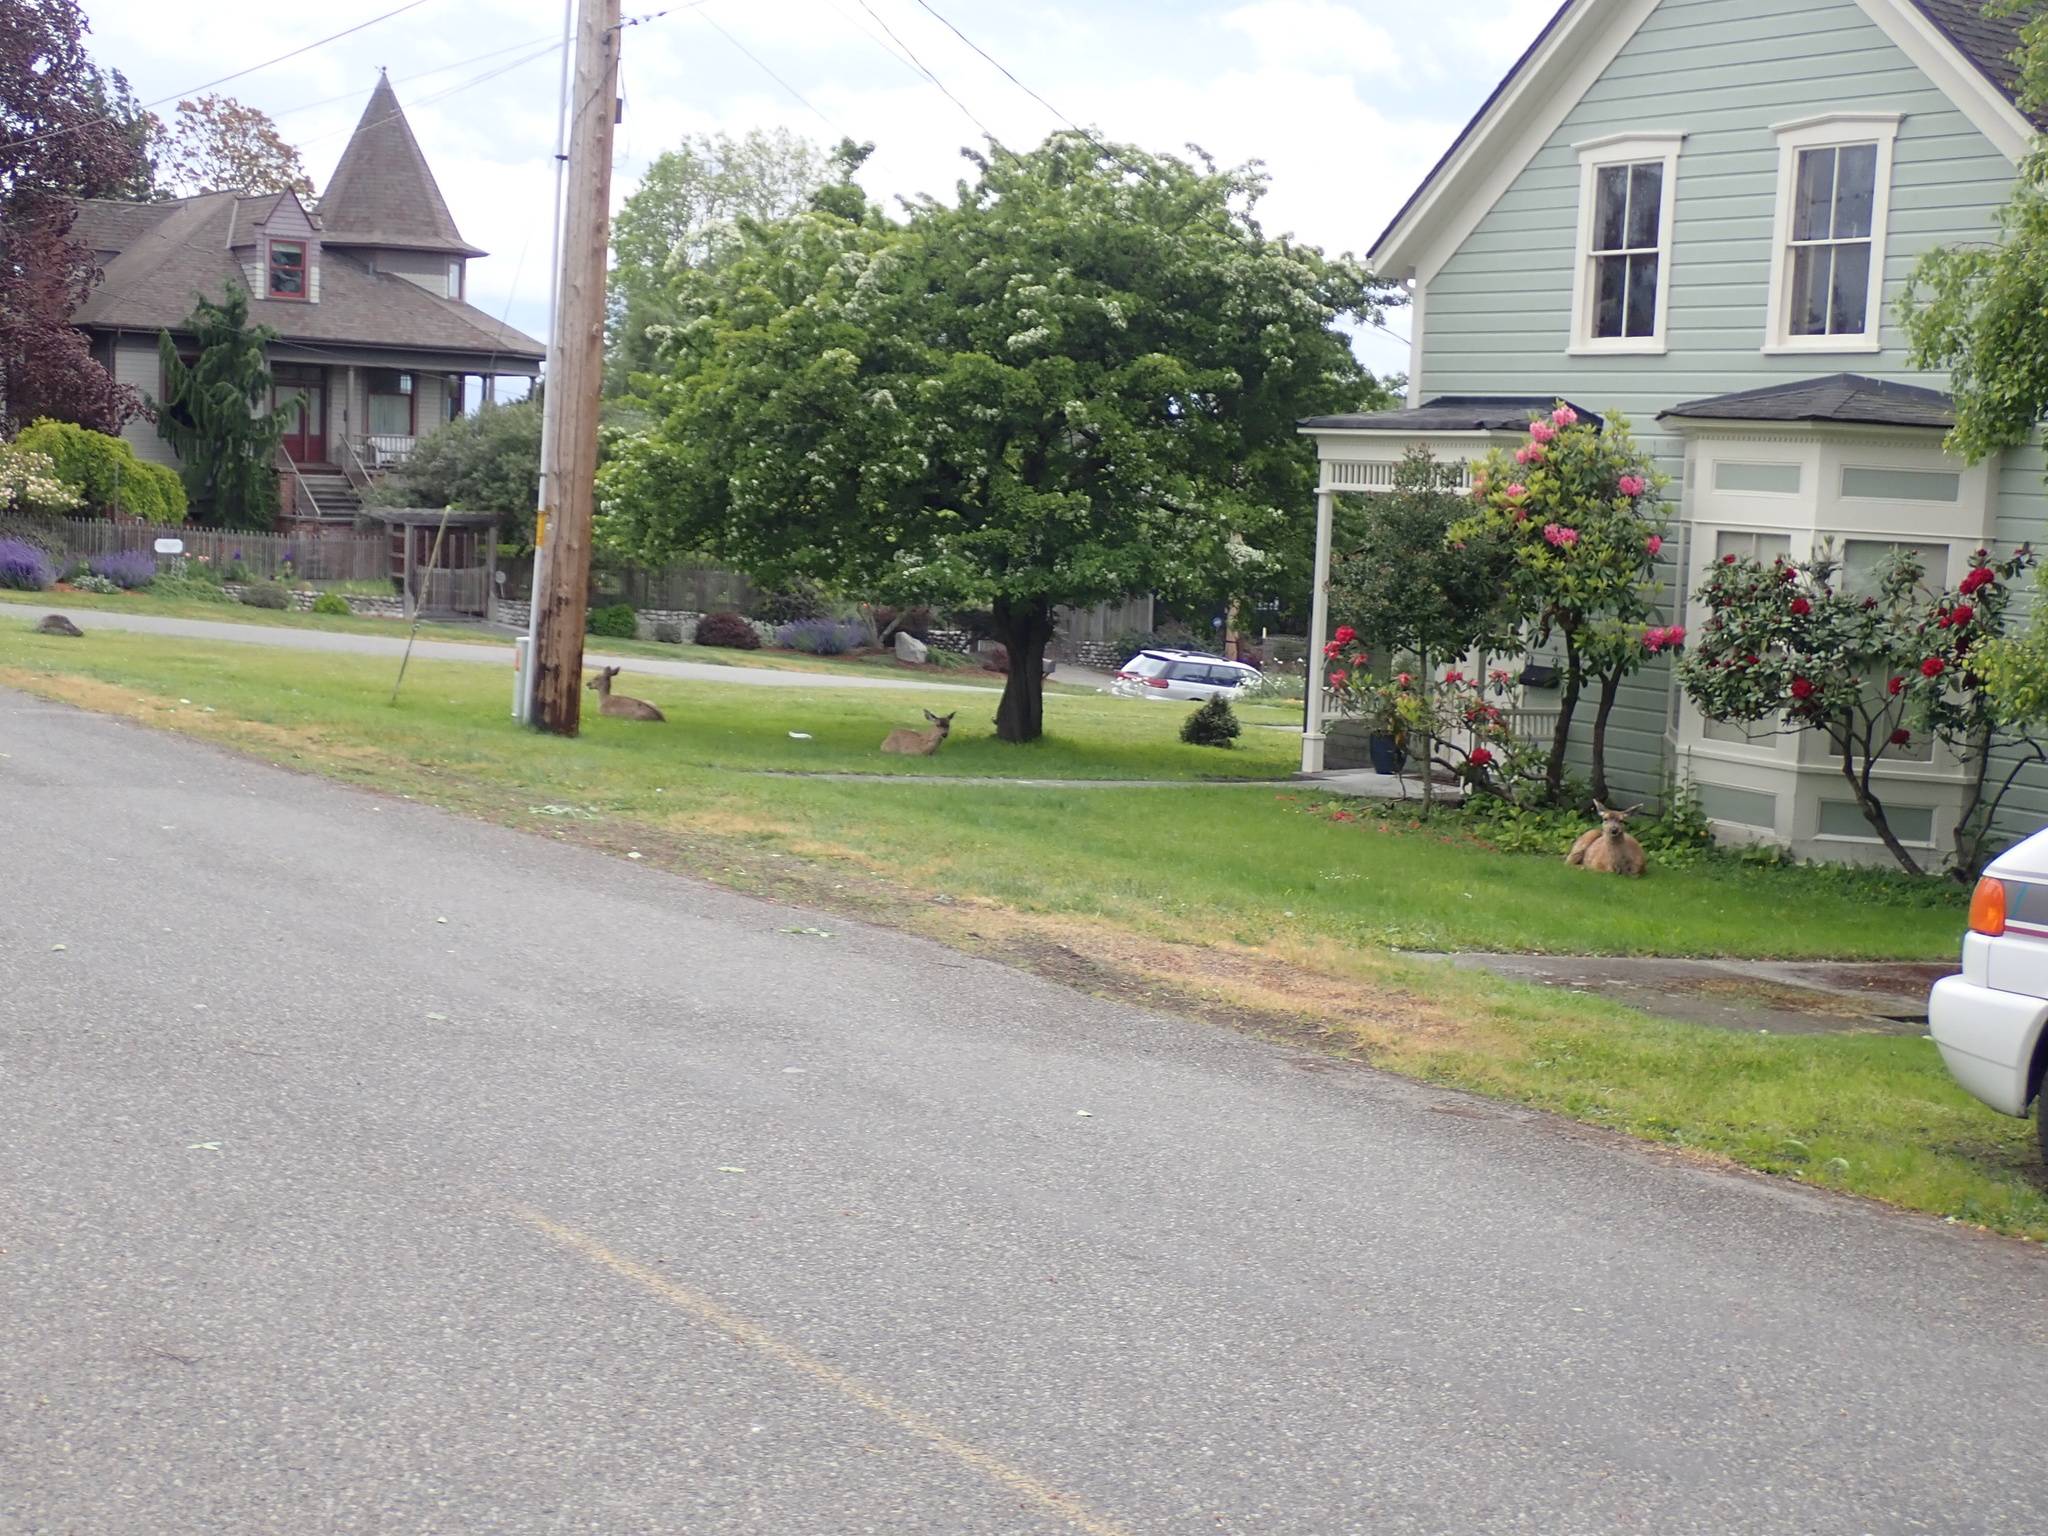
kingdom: Animalia
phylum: Chordata
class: Mammalia
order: Artiodactyla
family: Cervidae
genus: Odocoileus
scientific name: Odocoileus hemionus
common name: Mule deer
